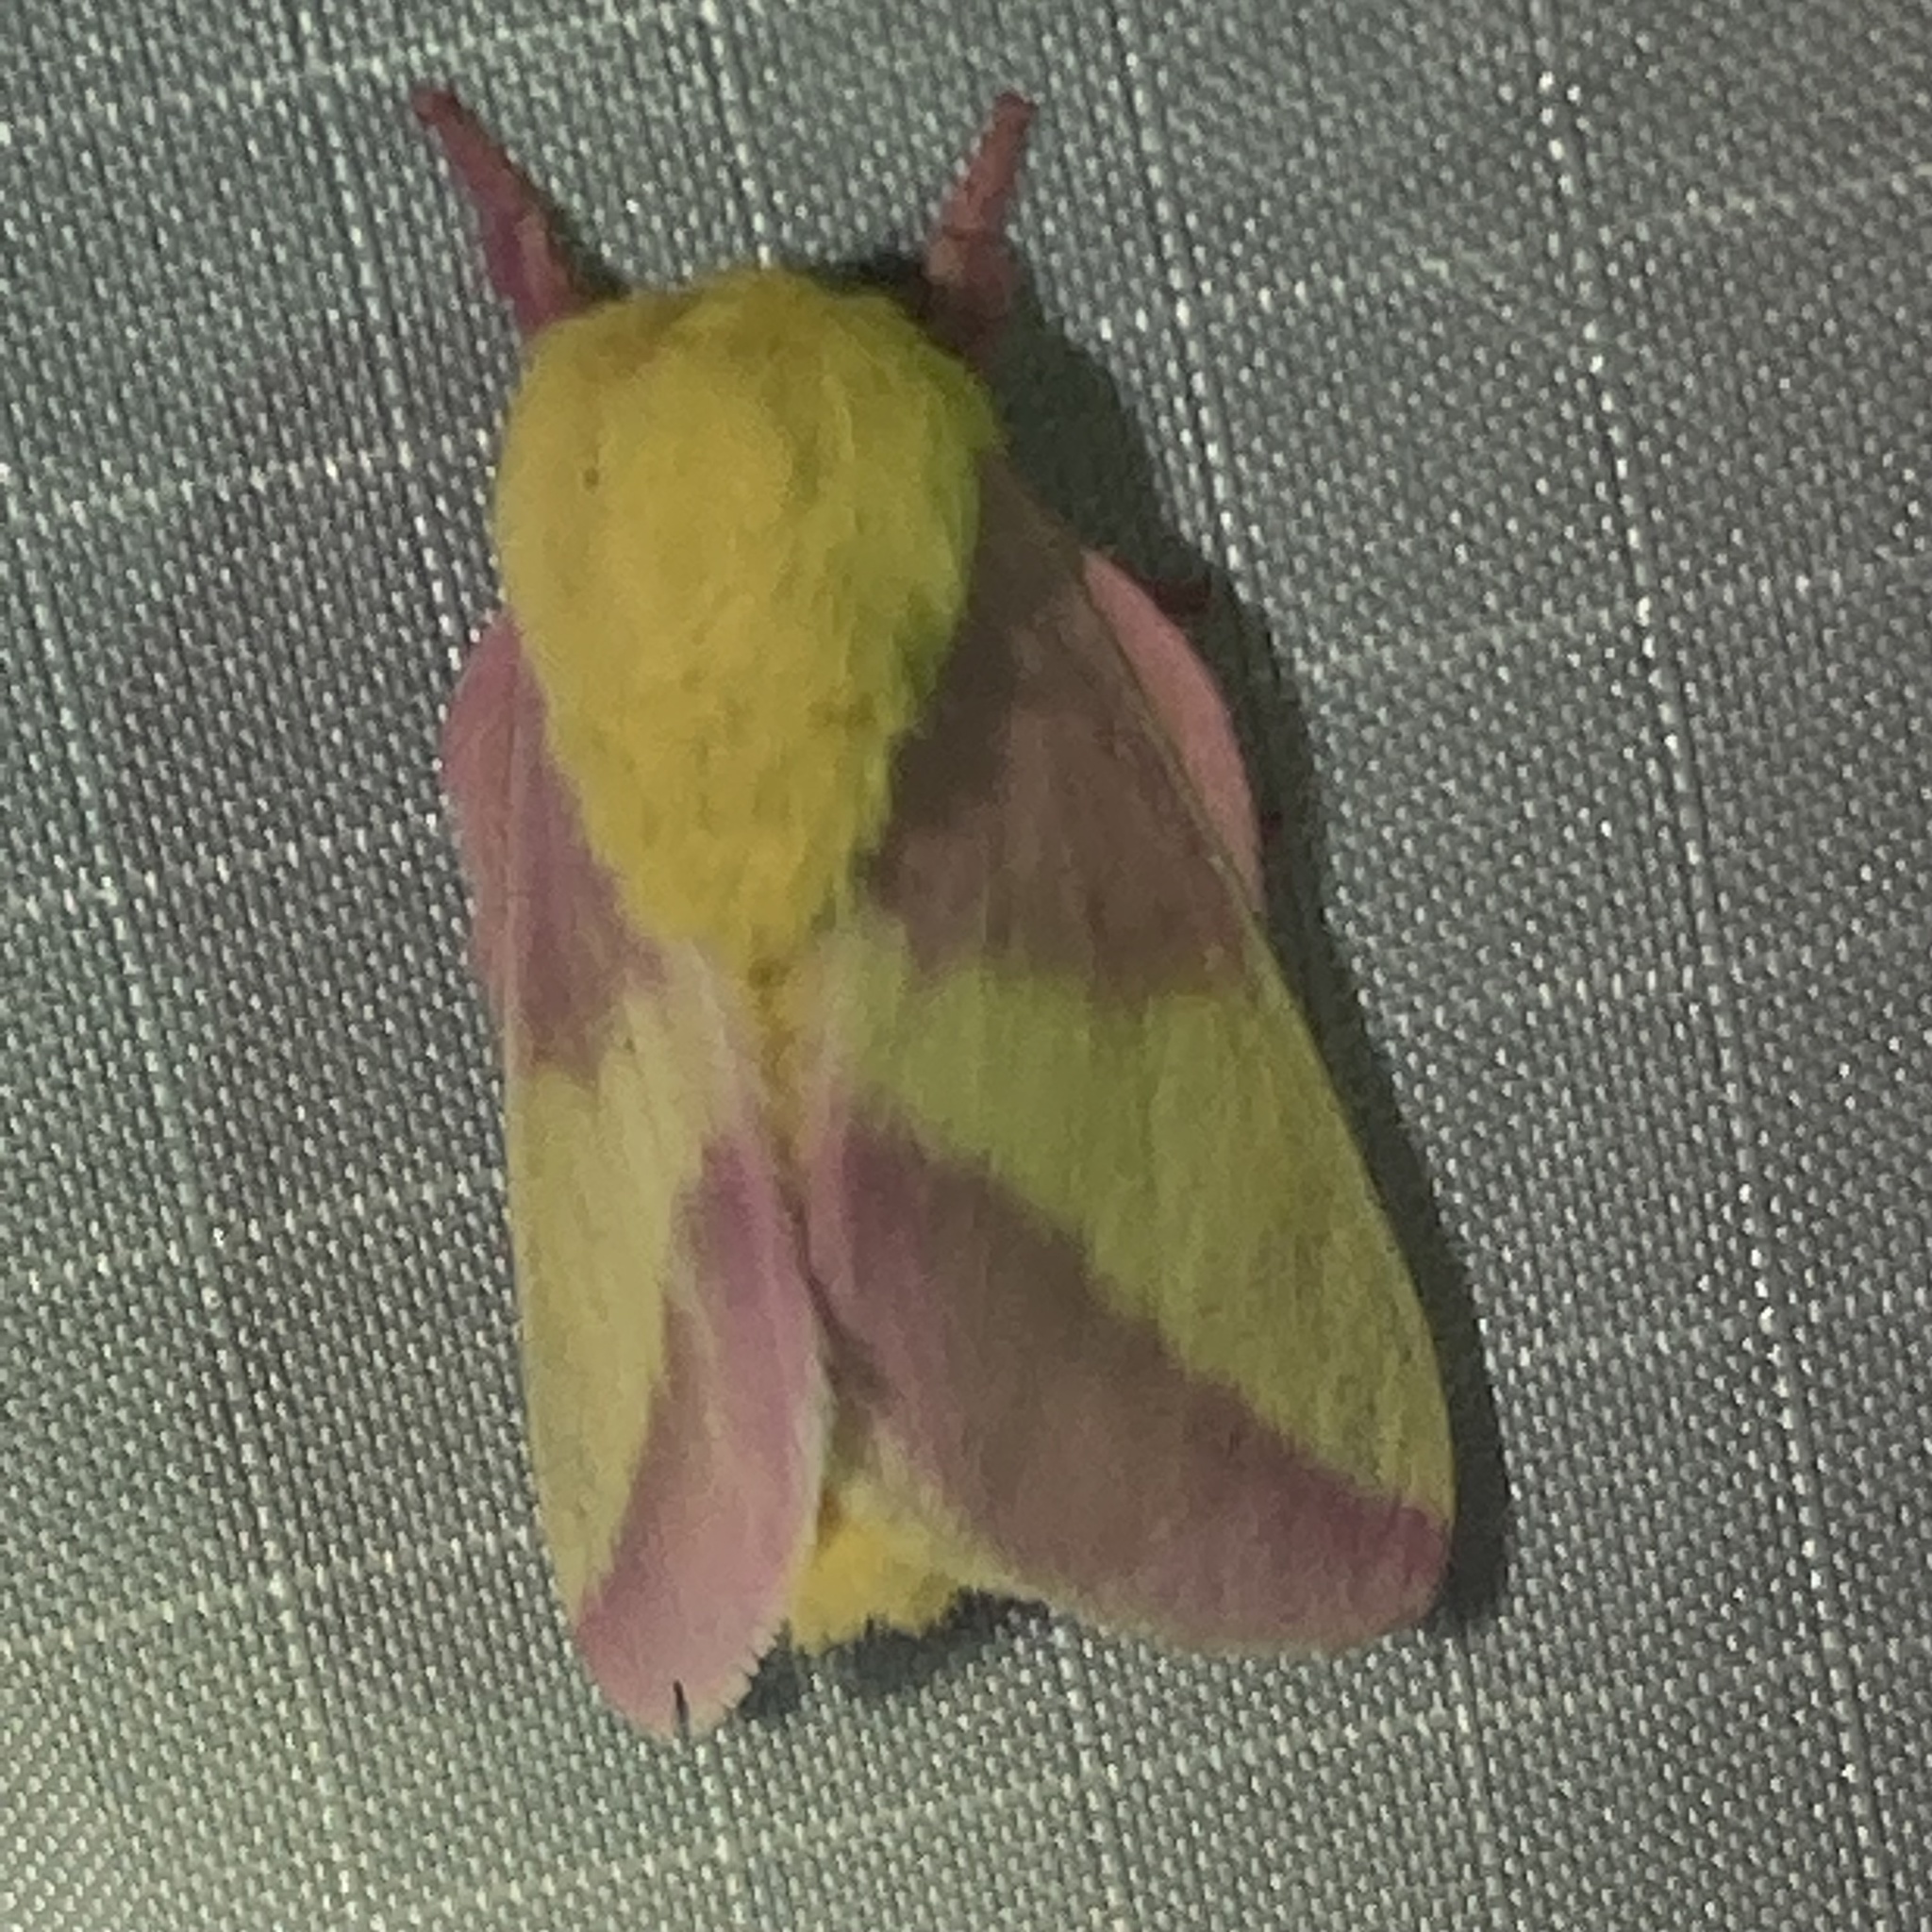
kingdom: Animalia
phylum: Arthropoda
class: Insecta
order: Lepidoptera
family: Saturniidae
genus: Dryocampa
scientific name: Dryocampa rubicunda
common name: Rosy maple moth
